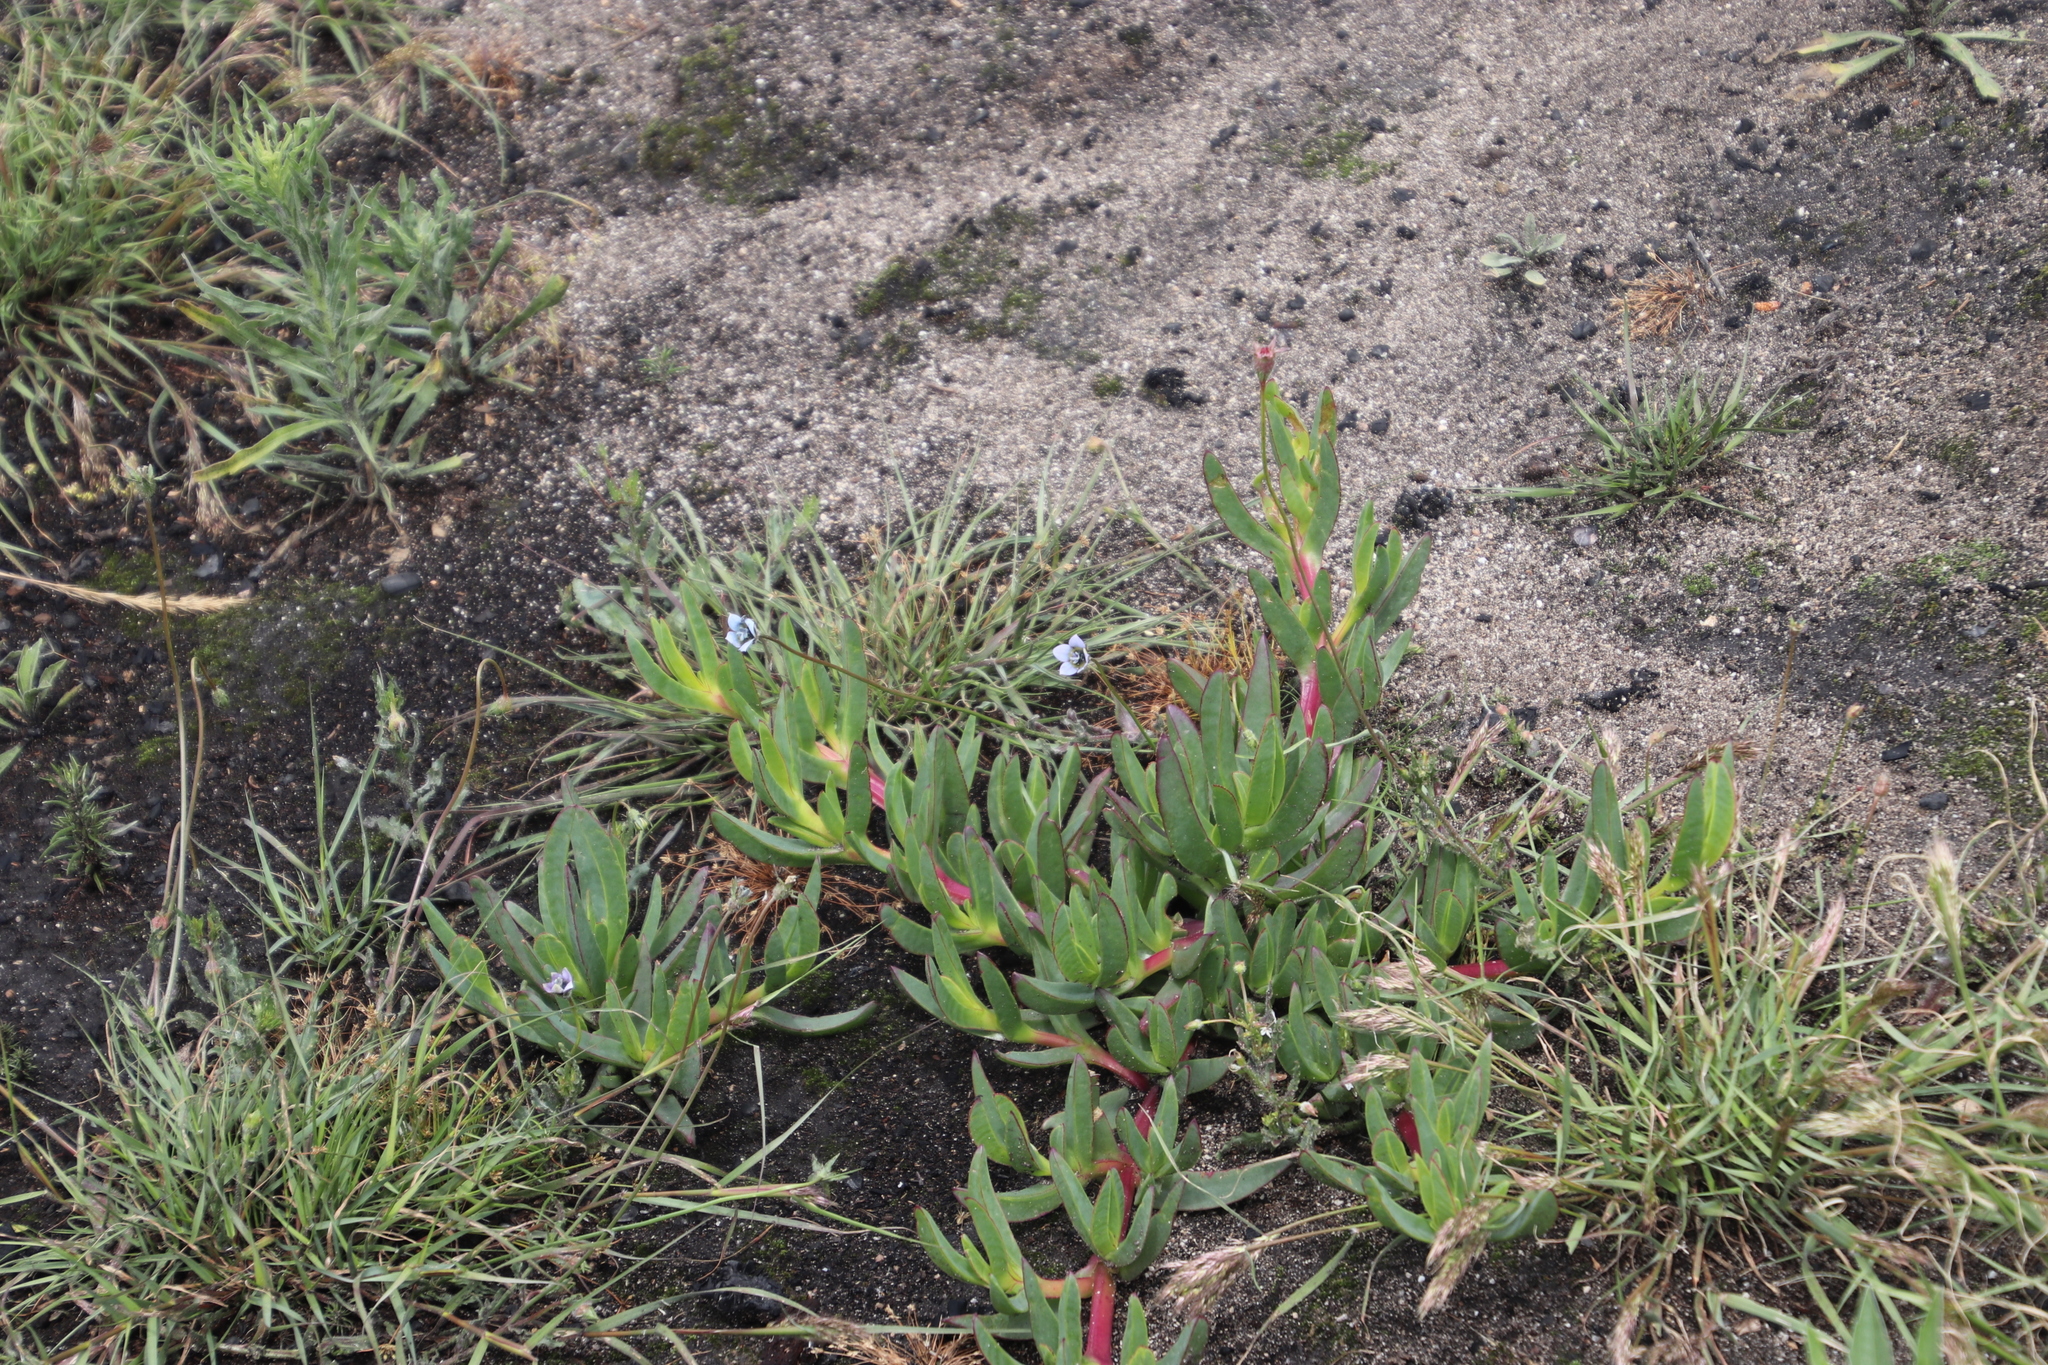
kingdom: Plantae
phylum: Tracheophyta
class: Magnoliopsida
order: Asterales
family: Campanulaceae
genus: Wahlenbergia
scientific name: Wahlenbergia capensis
